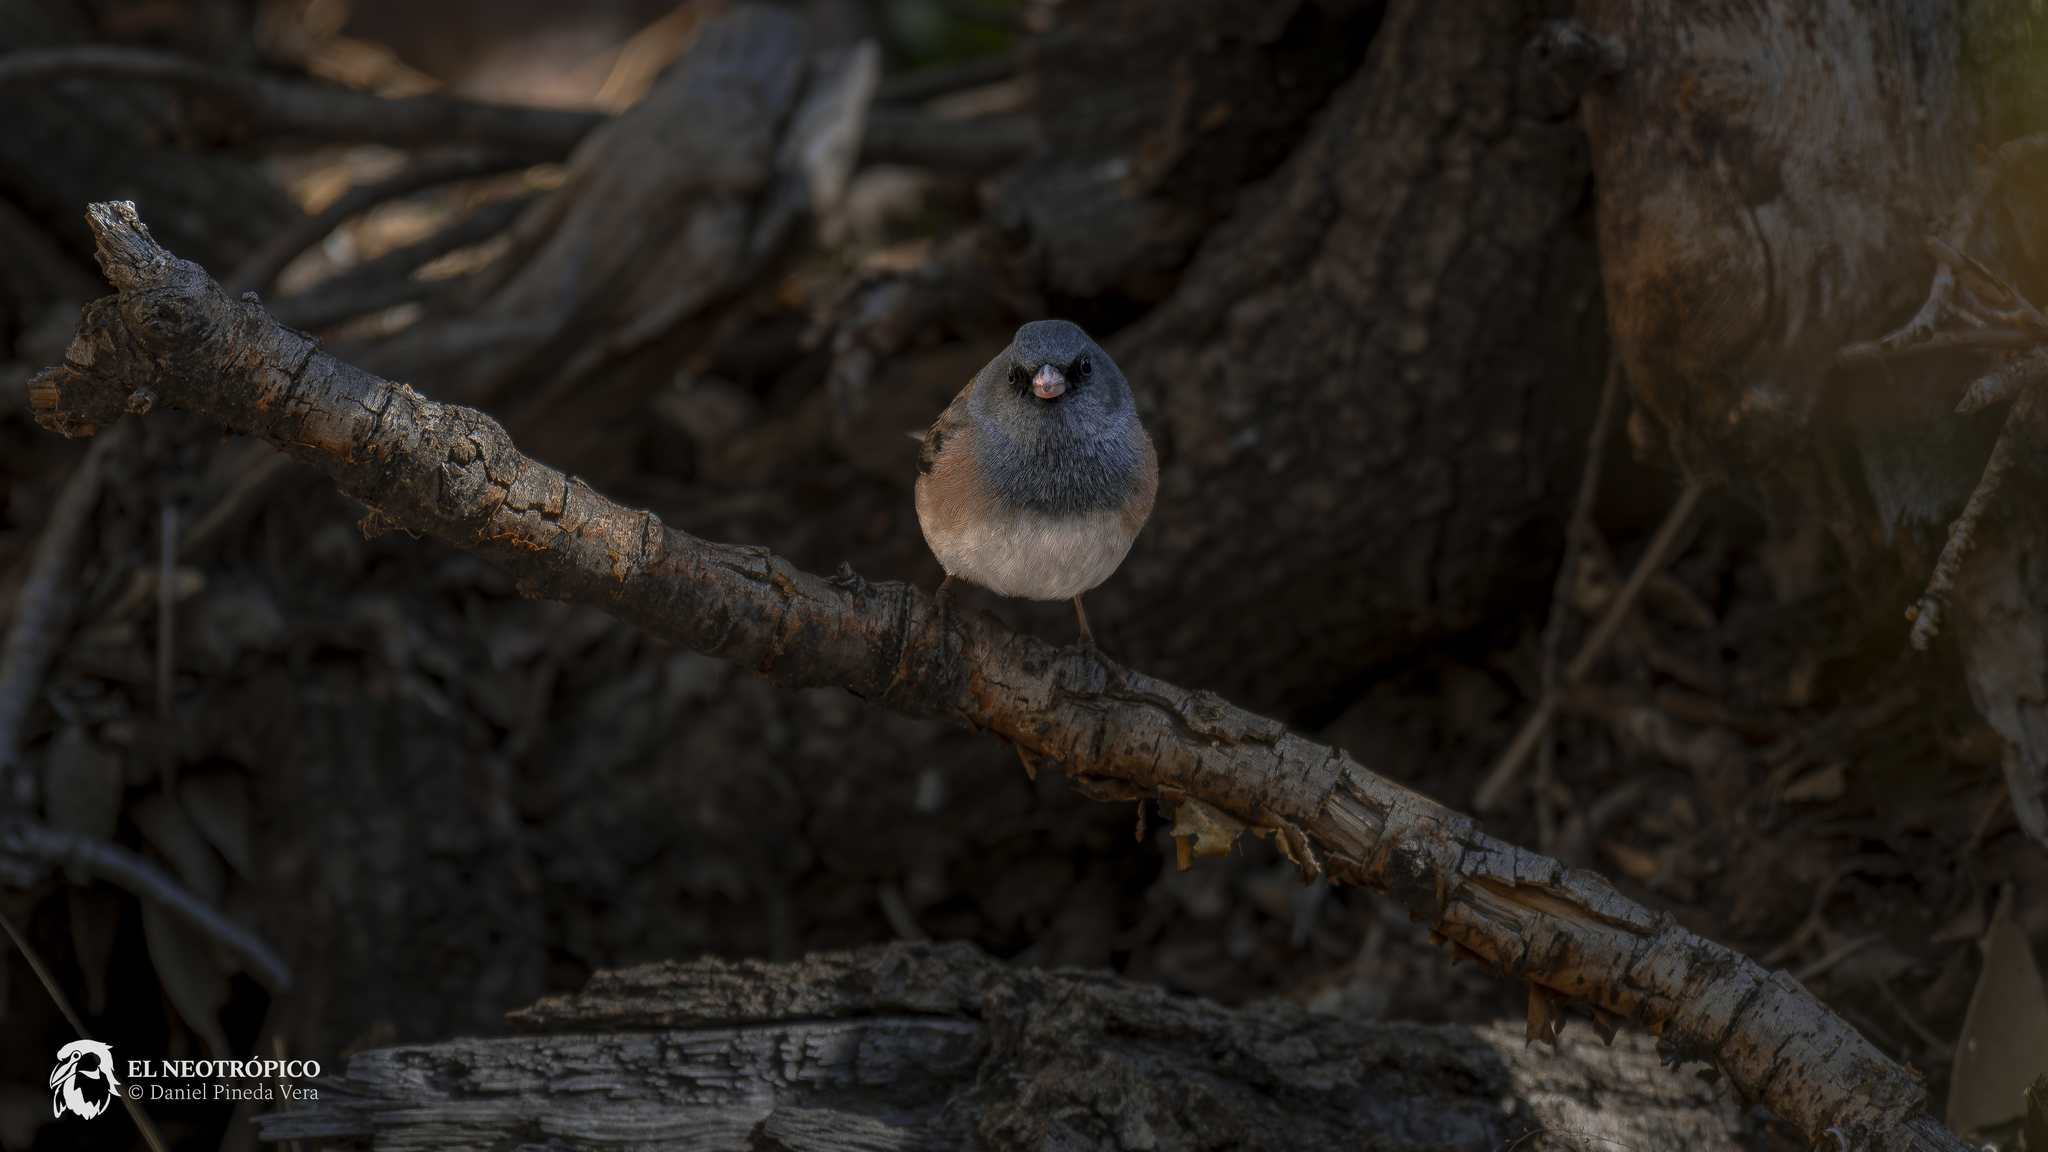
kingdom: Animalia
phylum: Chordata
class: Aves
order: Passeriformes
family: Passerellidae
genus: Junco
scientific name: Junco hyemalis
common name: Dark-eyed junco
